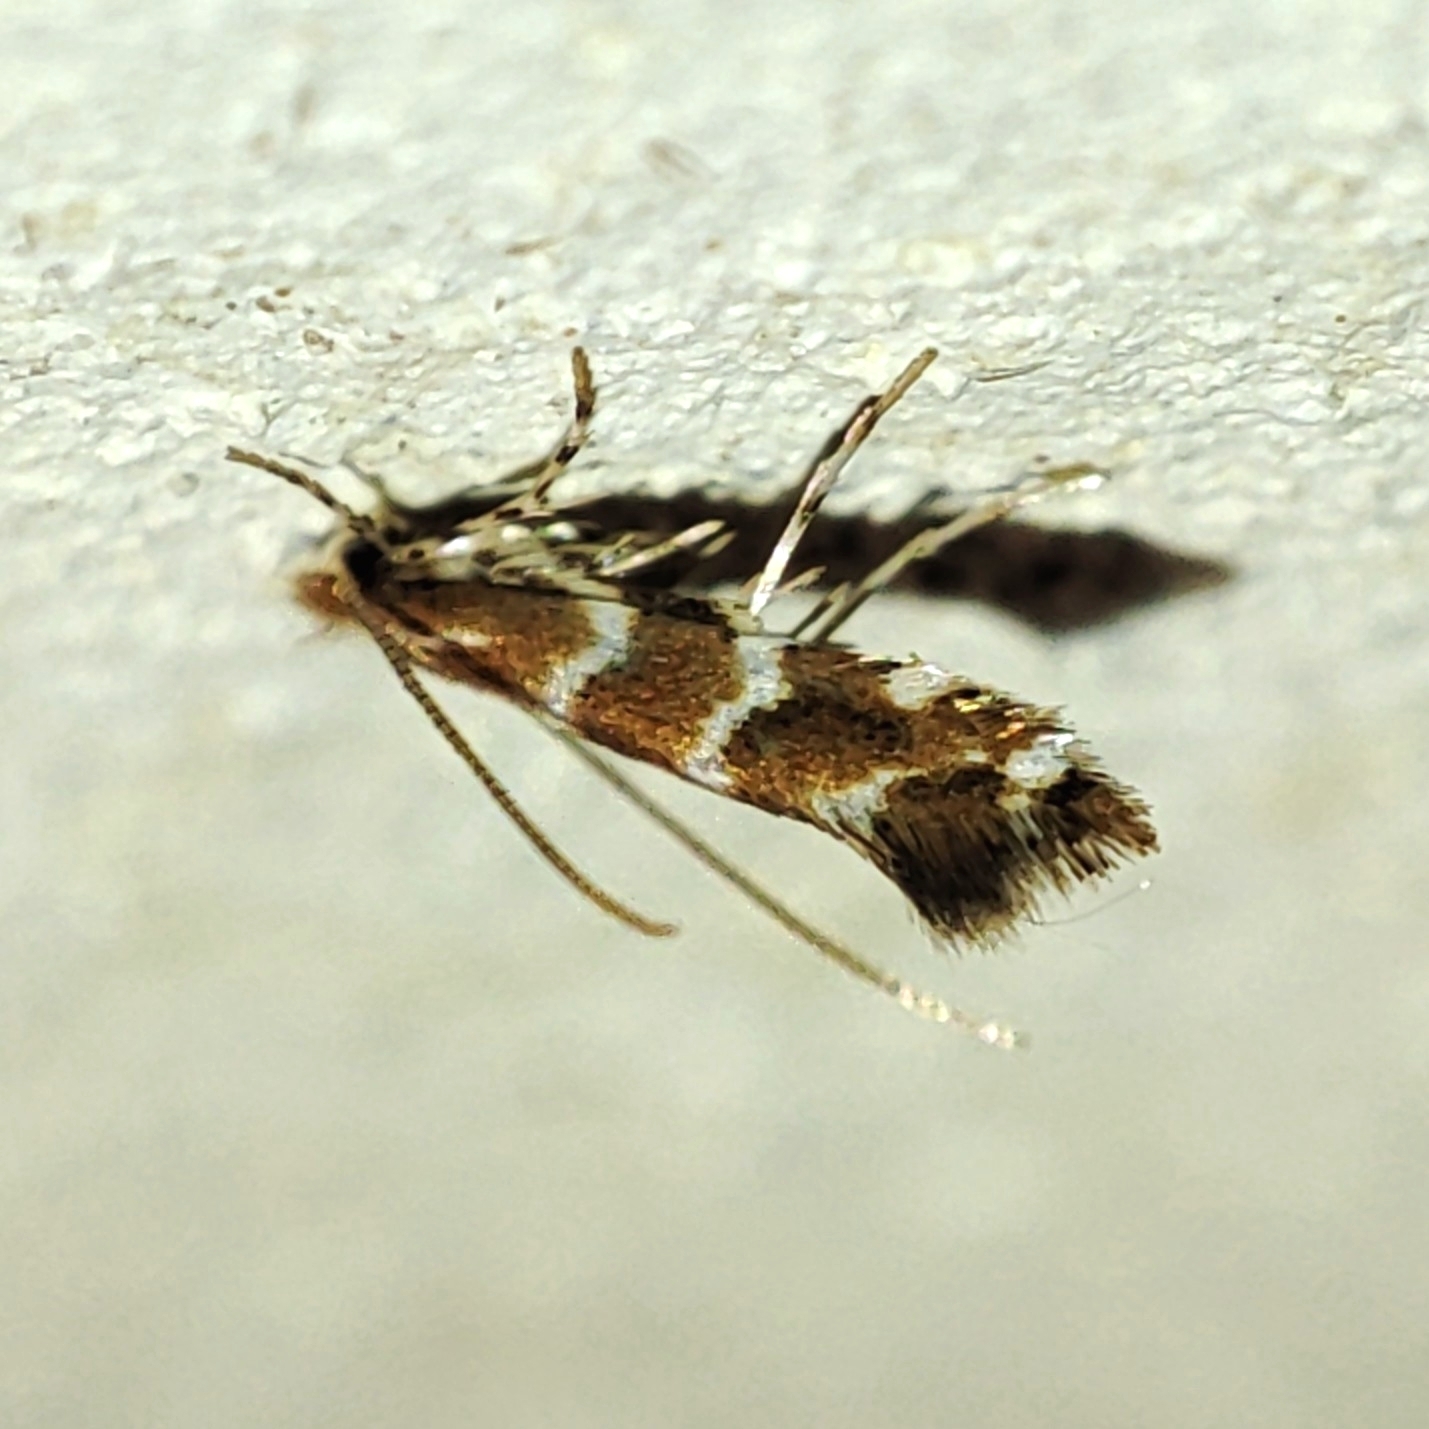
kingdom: Animalia
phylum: Arthropoda
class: Insecta
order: Lepidoptera
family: Gracillariidae
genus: Cameraria
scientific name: Cameraria ohridella
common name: Horse-chestnut leaf-miner
